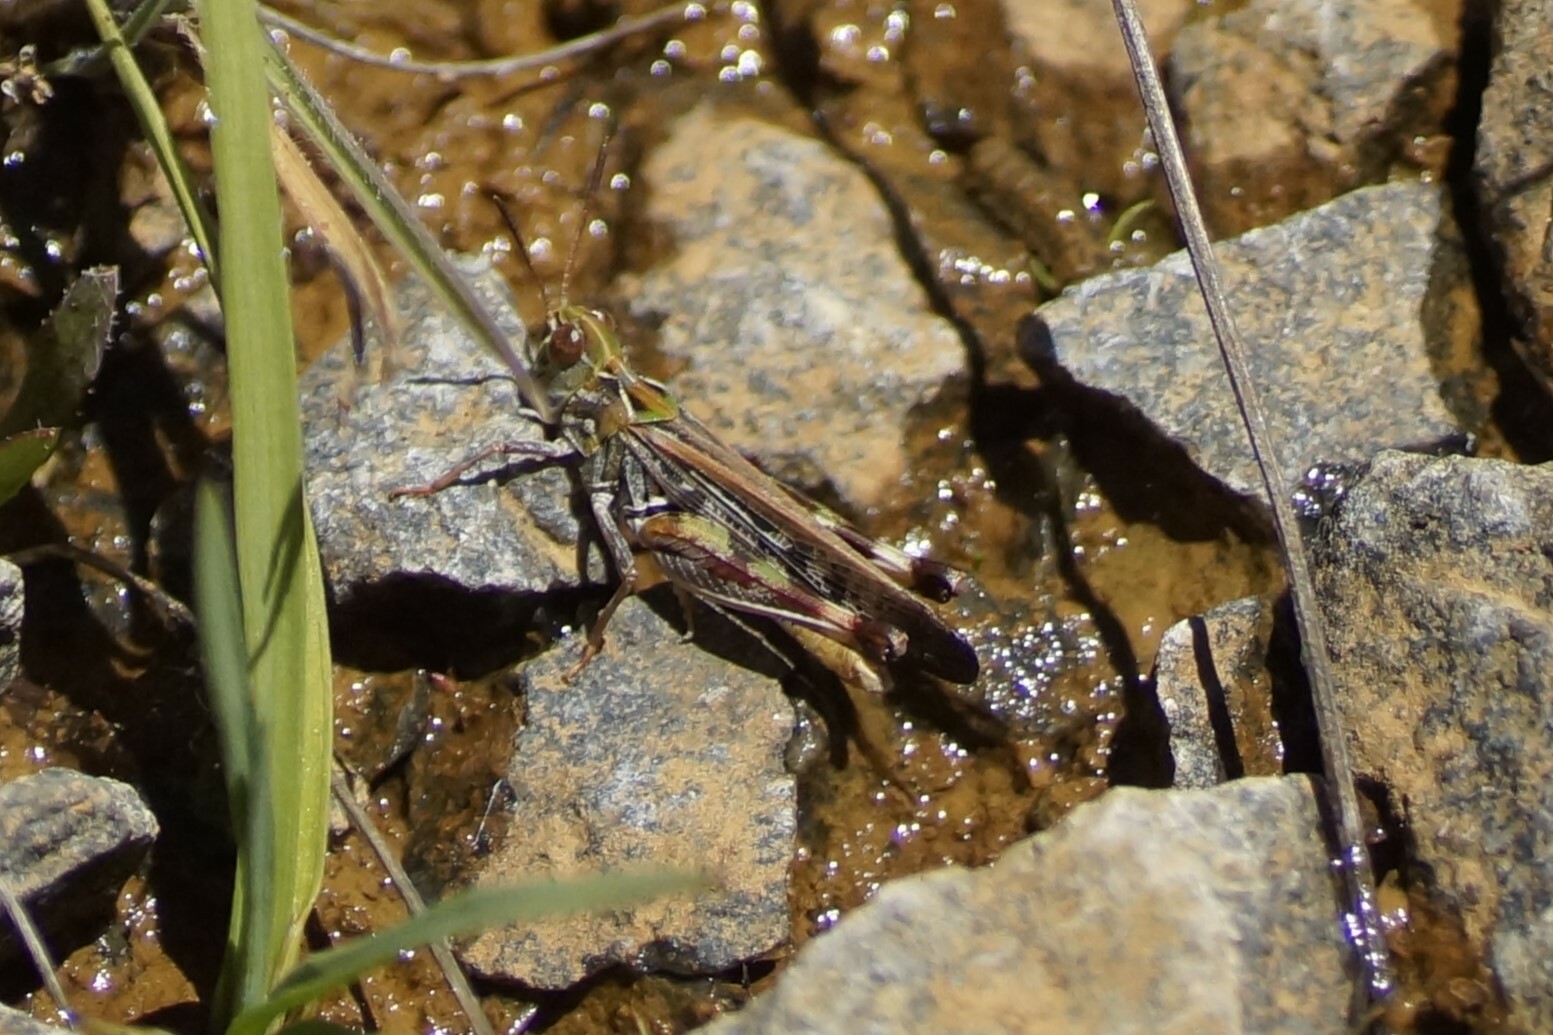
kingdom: Animalia
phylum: Arthropoda
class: Insecta
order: Orthoptera
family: Acrididae
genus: Austroicetes
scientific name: Austroicetes vulgaris
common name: Southeastern austroicetes
